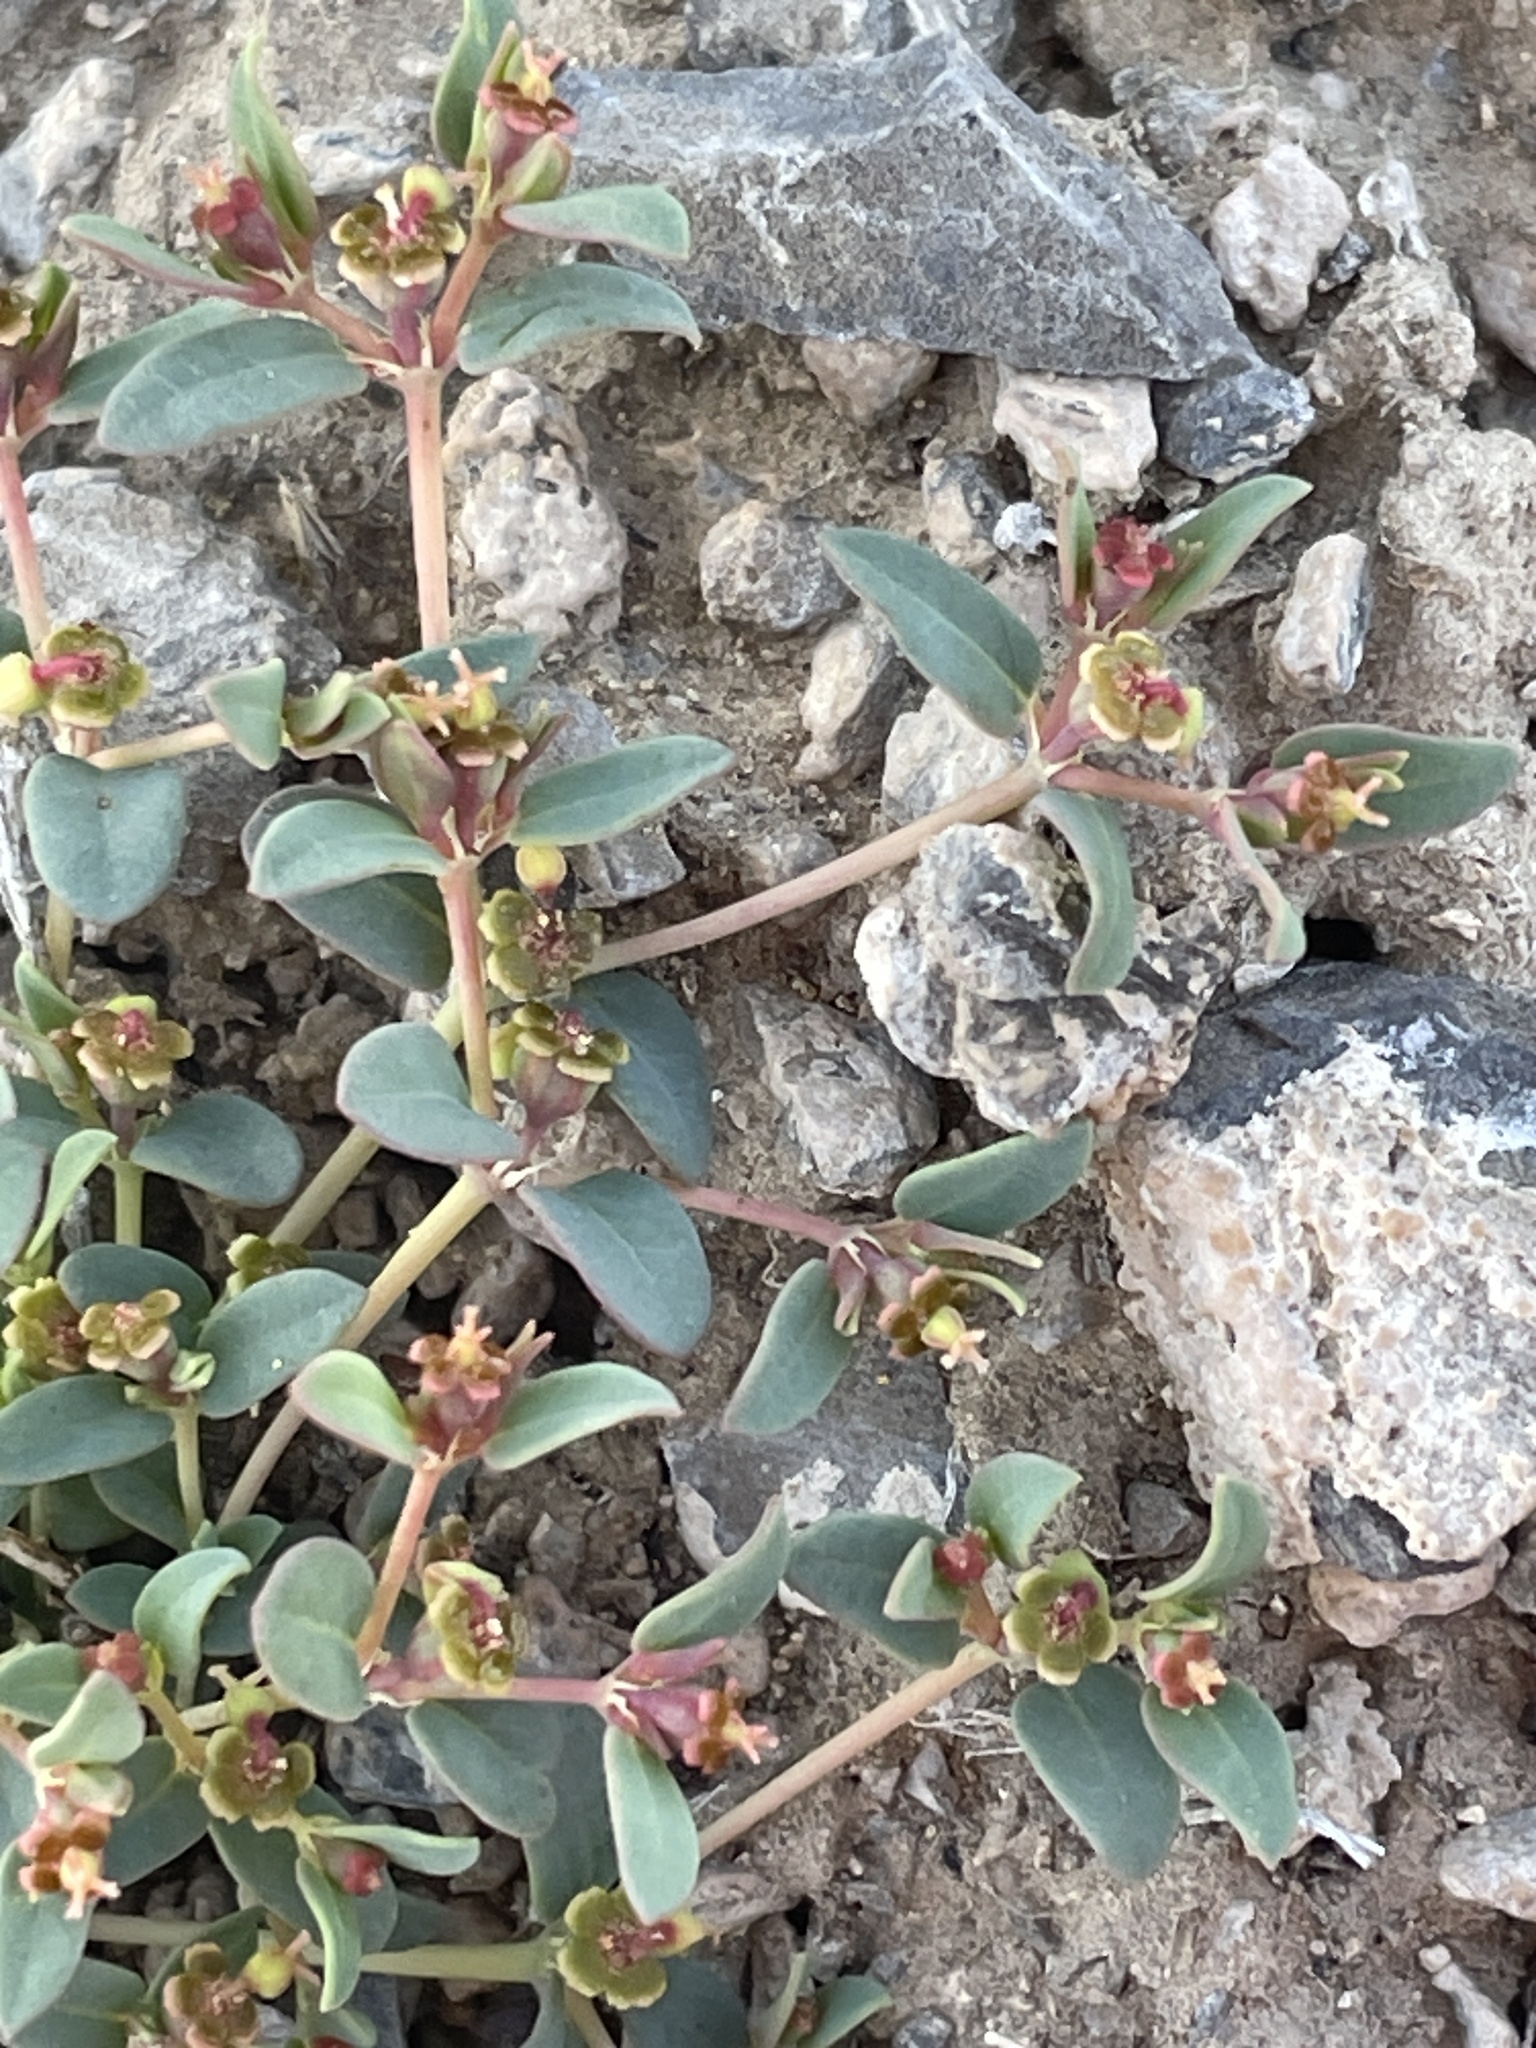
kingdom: Plantae
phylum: Tracheophyta
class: Magnoliopsida
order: Malpighiales
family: Euphorbiaceae
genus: Euphorbia
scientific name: Euphorbia fendleri
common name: Fendler's euphorbia
